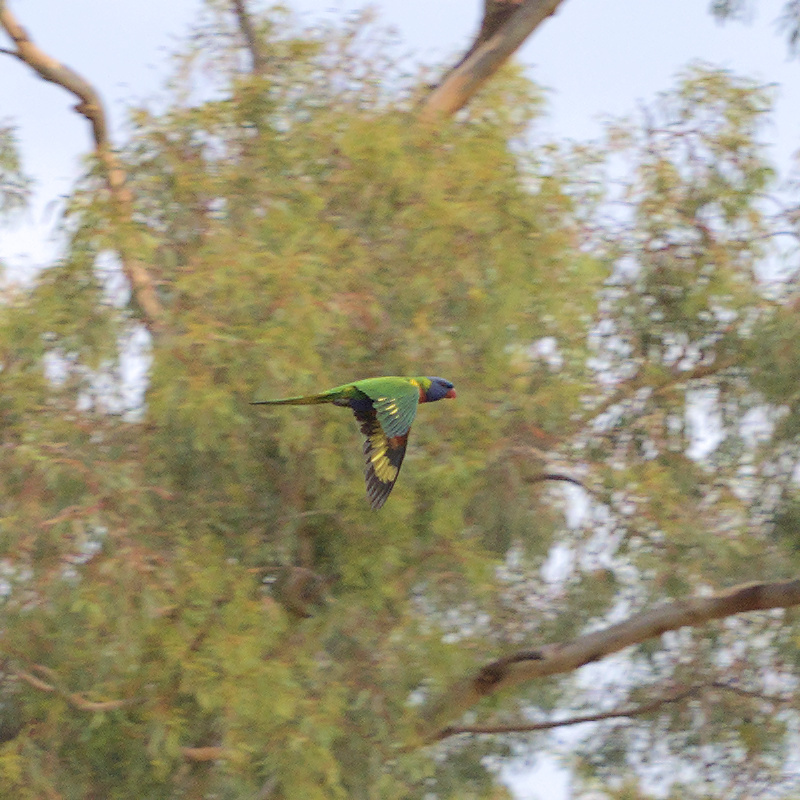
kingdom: Animalia
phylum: Chordata
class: Aves
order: Psittaciformes
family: Psittacidae
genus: Trichoglossus
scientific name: Trichoglossus haematodus
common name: Coconut lorikeet
